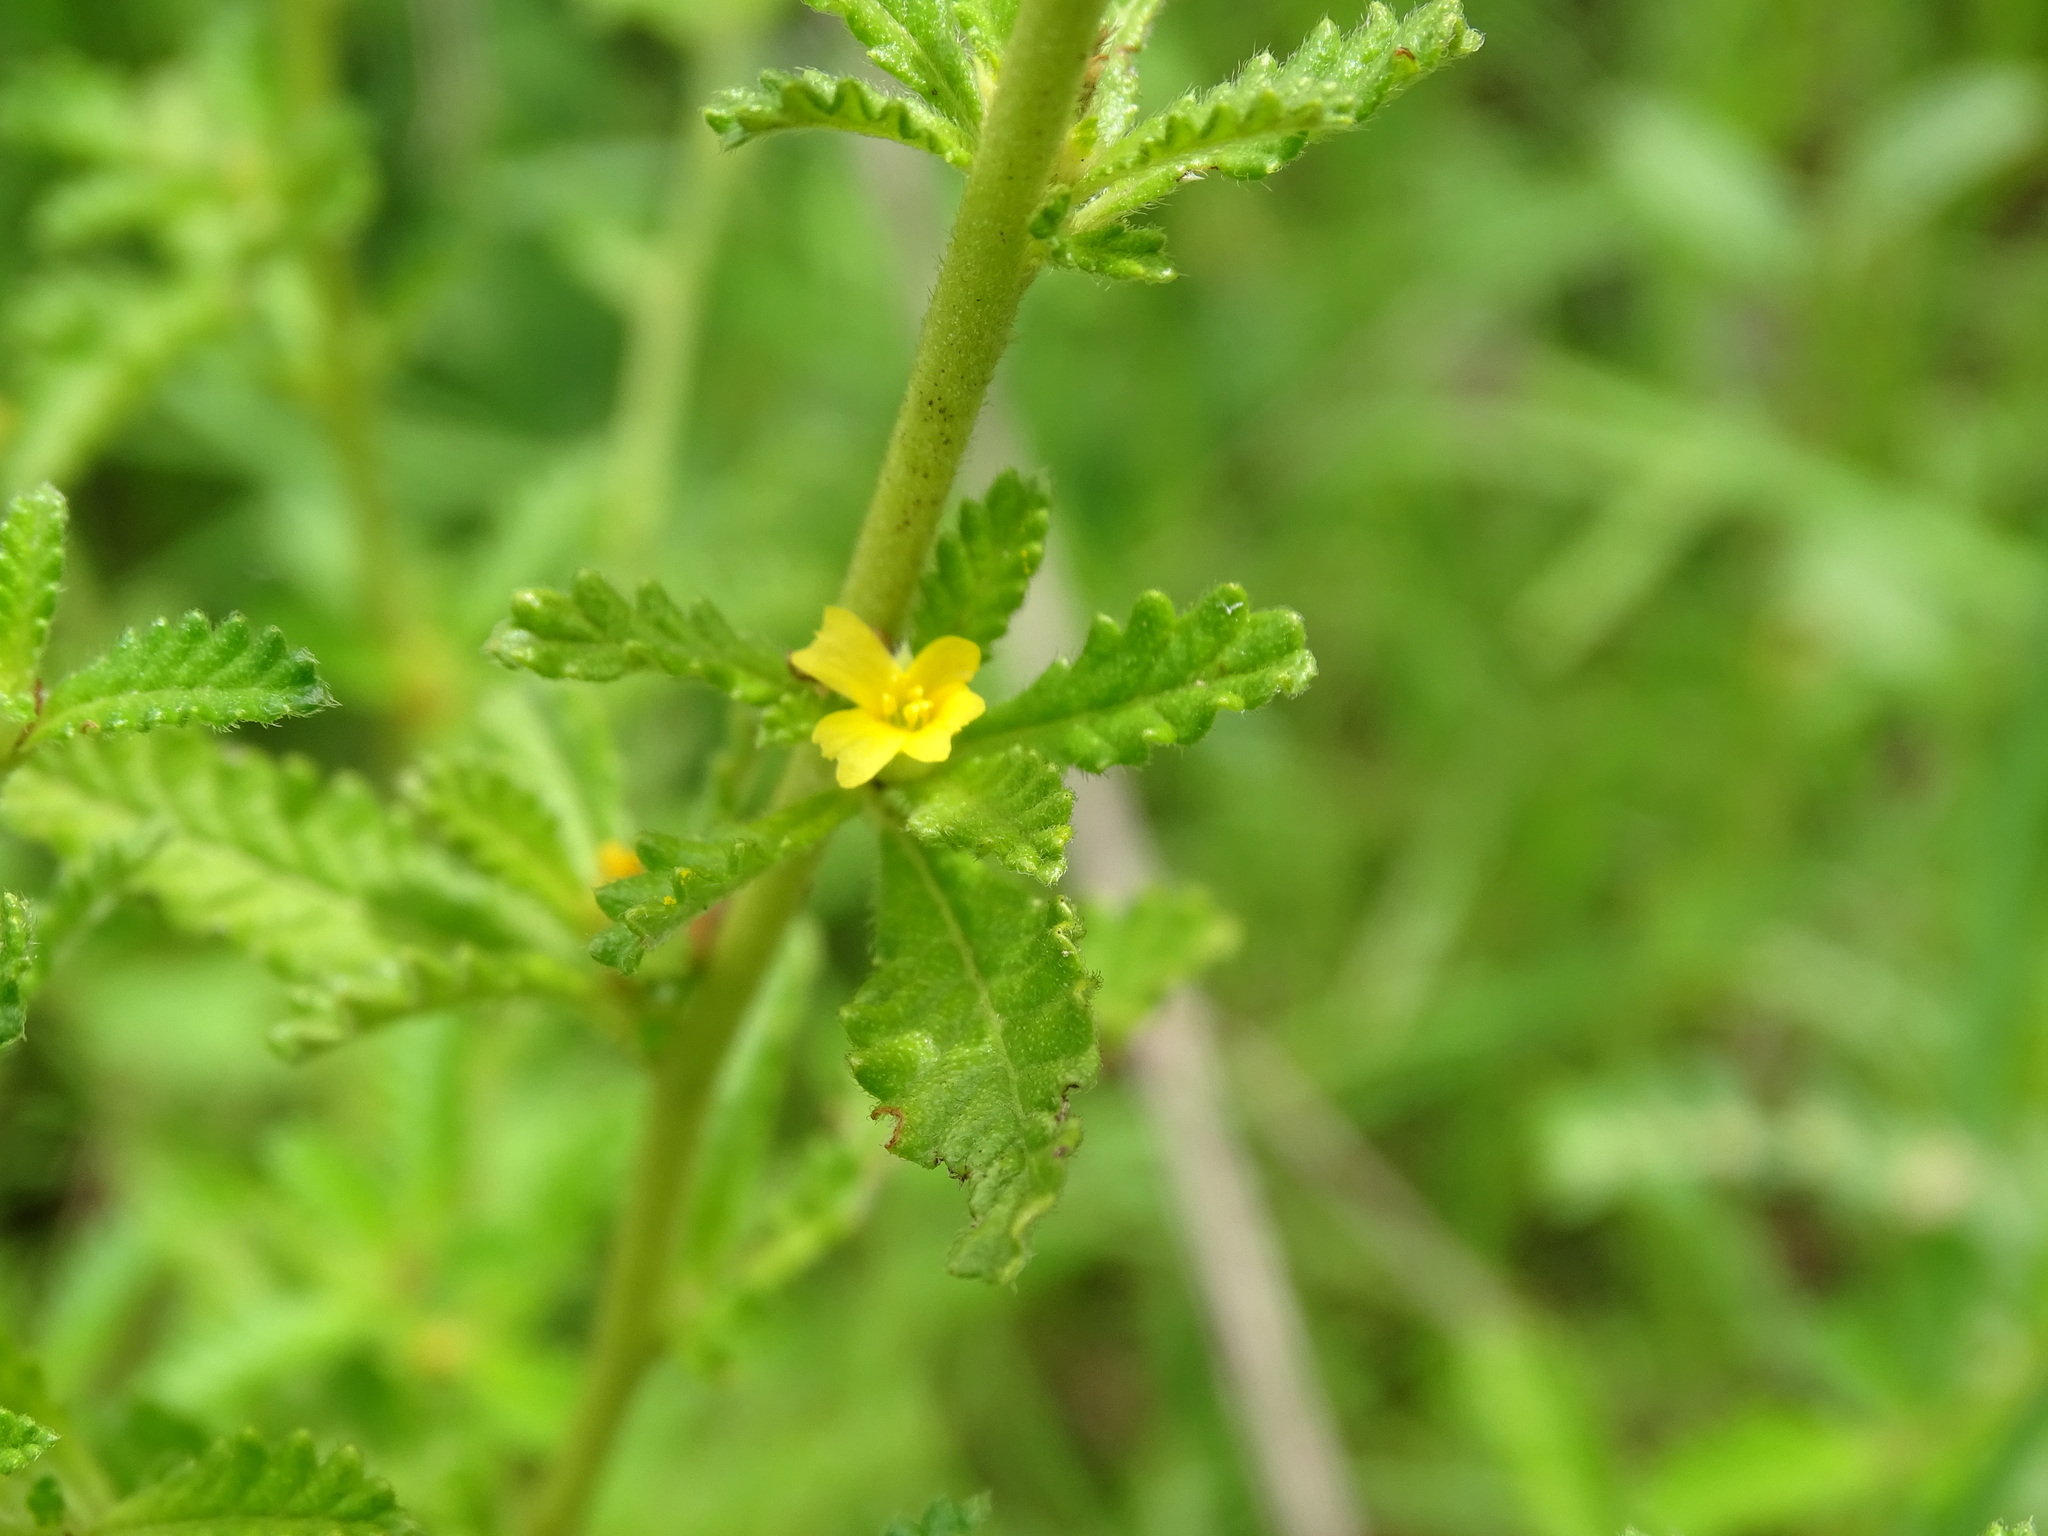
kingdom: Plantae
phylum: Tracheophyta
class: Magnoliopsida
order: Malpighiales
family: Turneraceae
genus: Turnera
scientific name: Turnera diffusa
